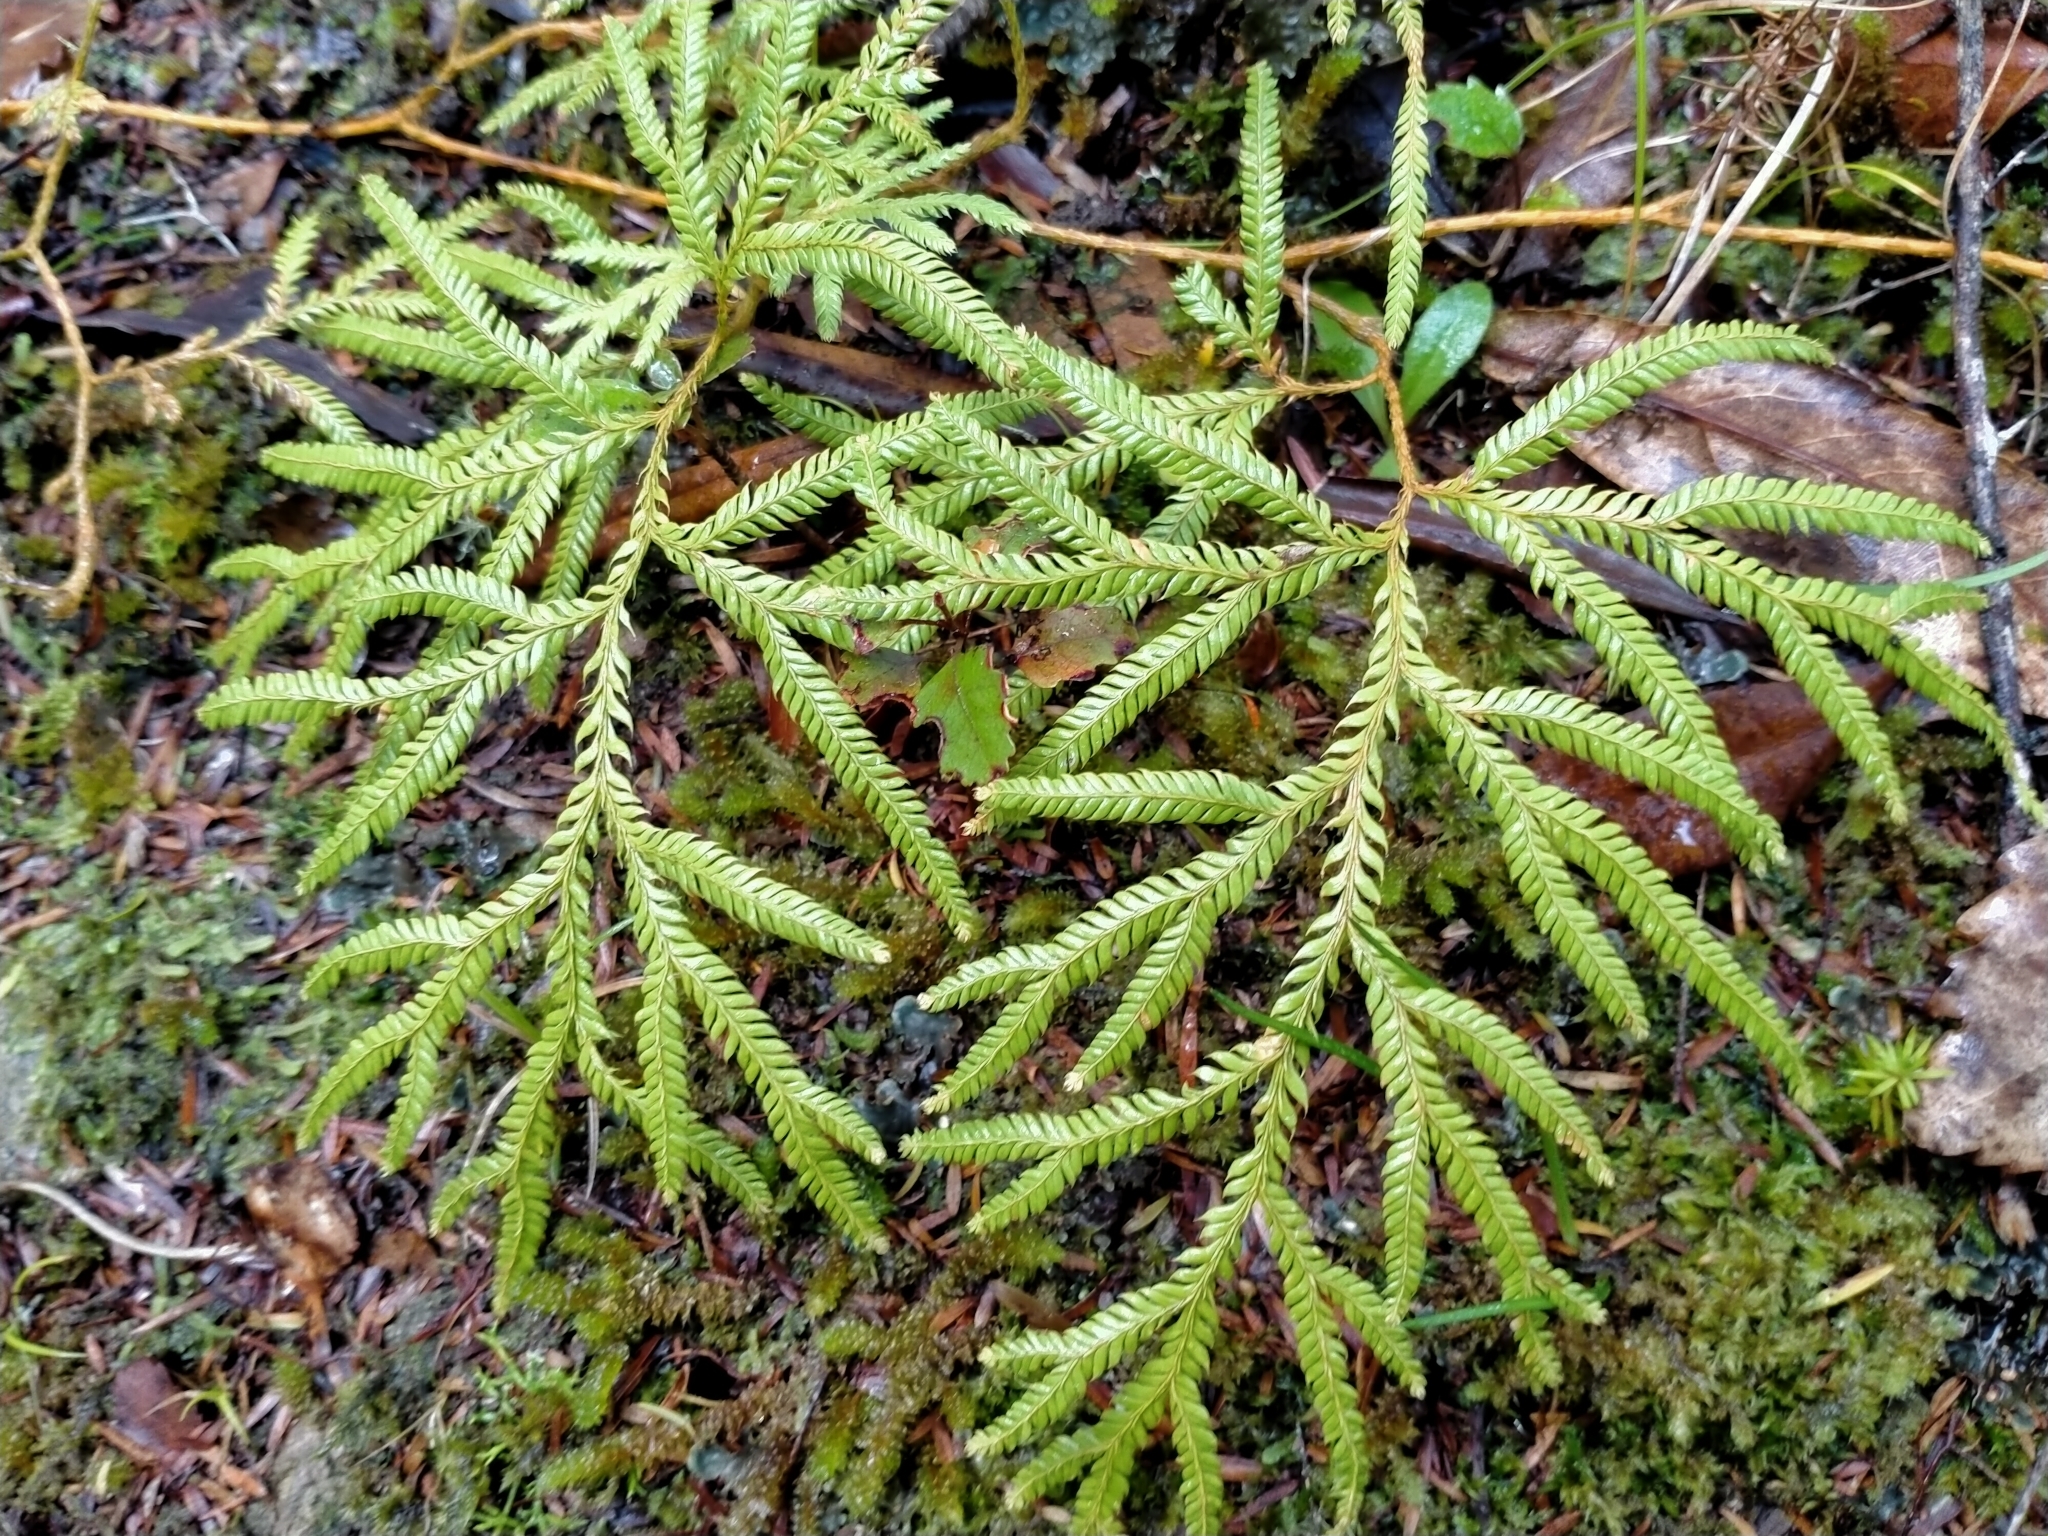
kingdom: Plantae
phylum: Tracheophyta
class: Lycopodiopsida
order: Lycopodiales
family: Lycopodiaceae
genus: Lycopodium
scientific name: Lycopodium volubile
